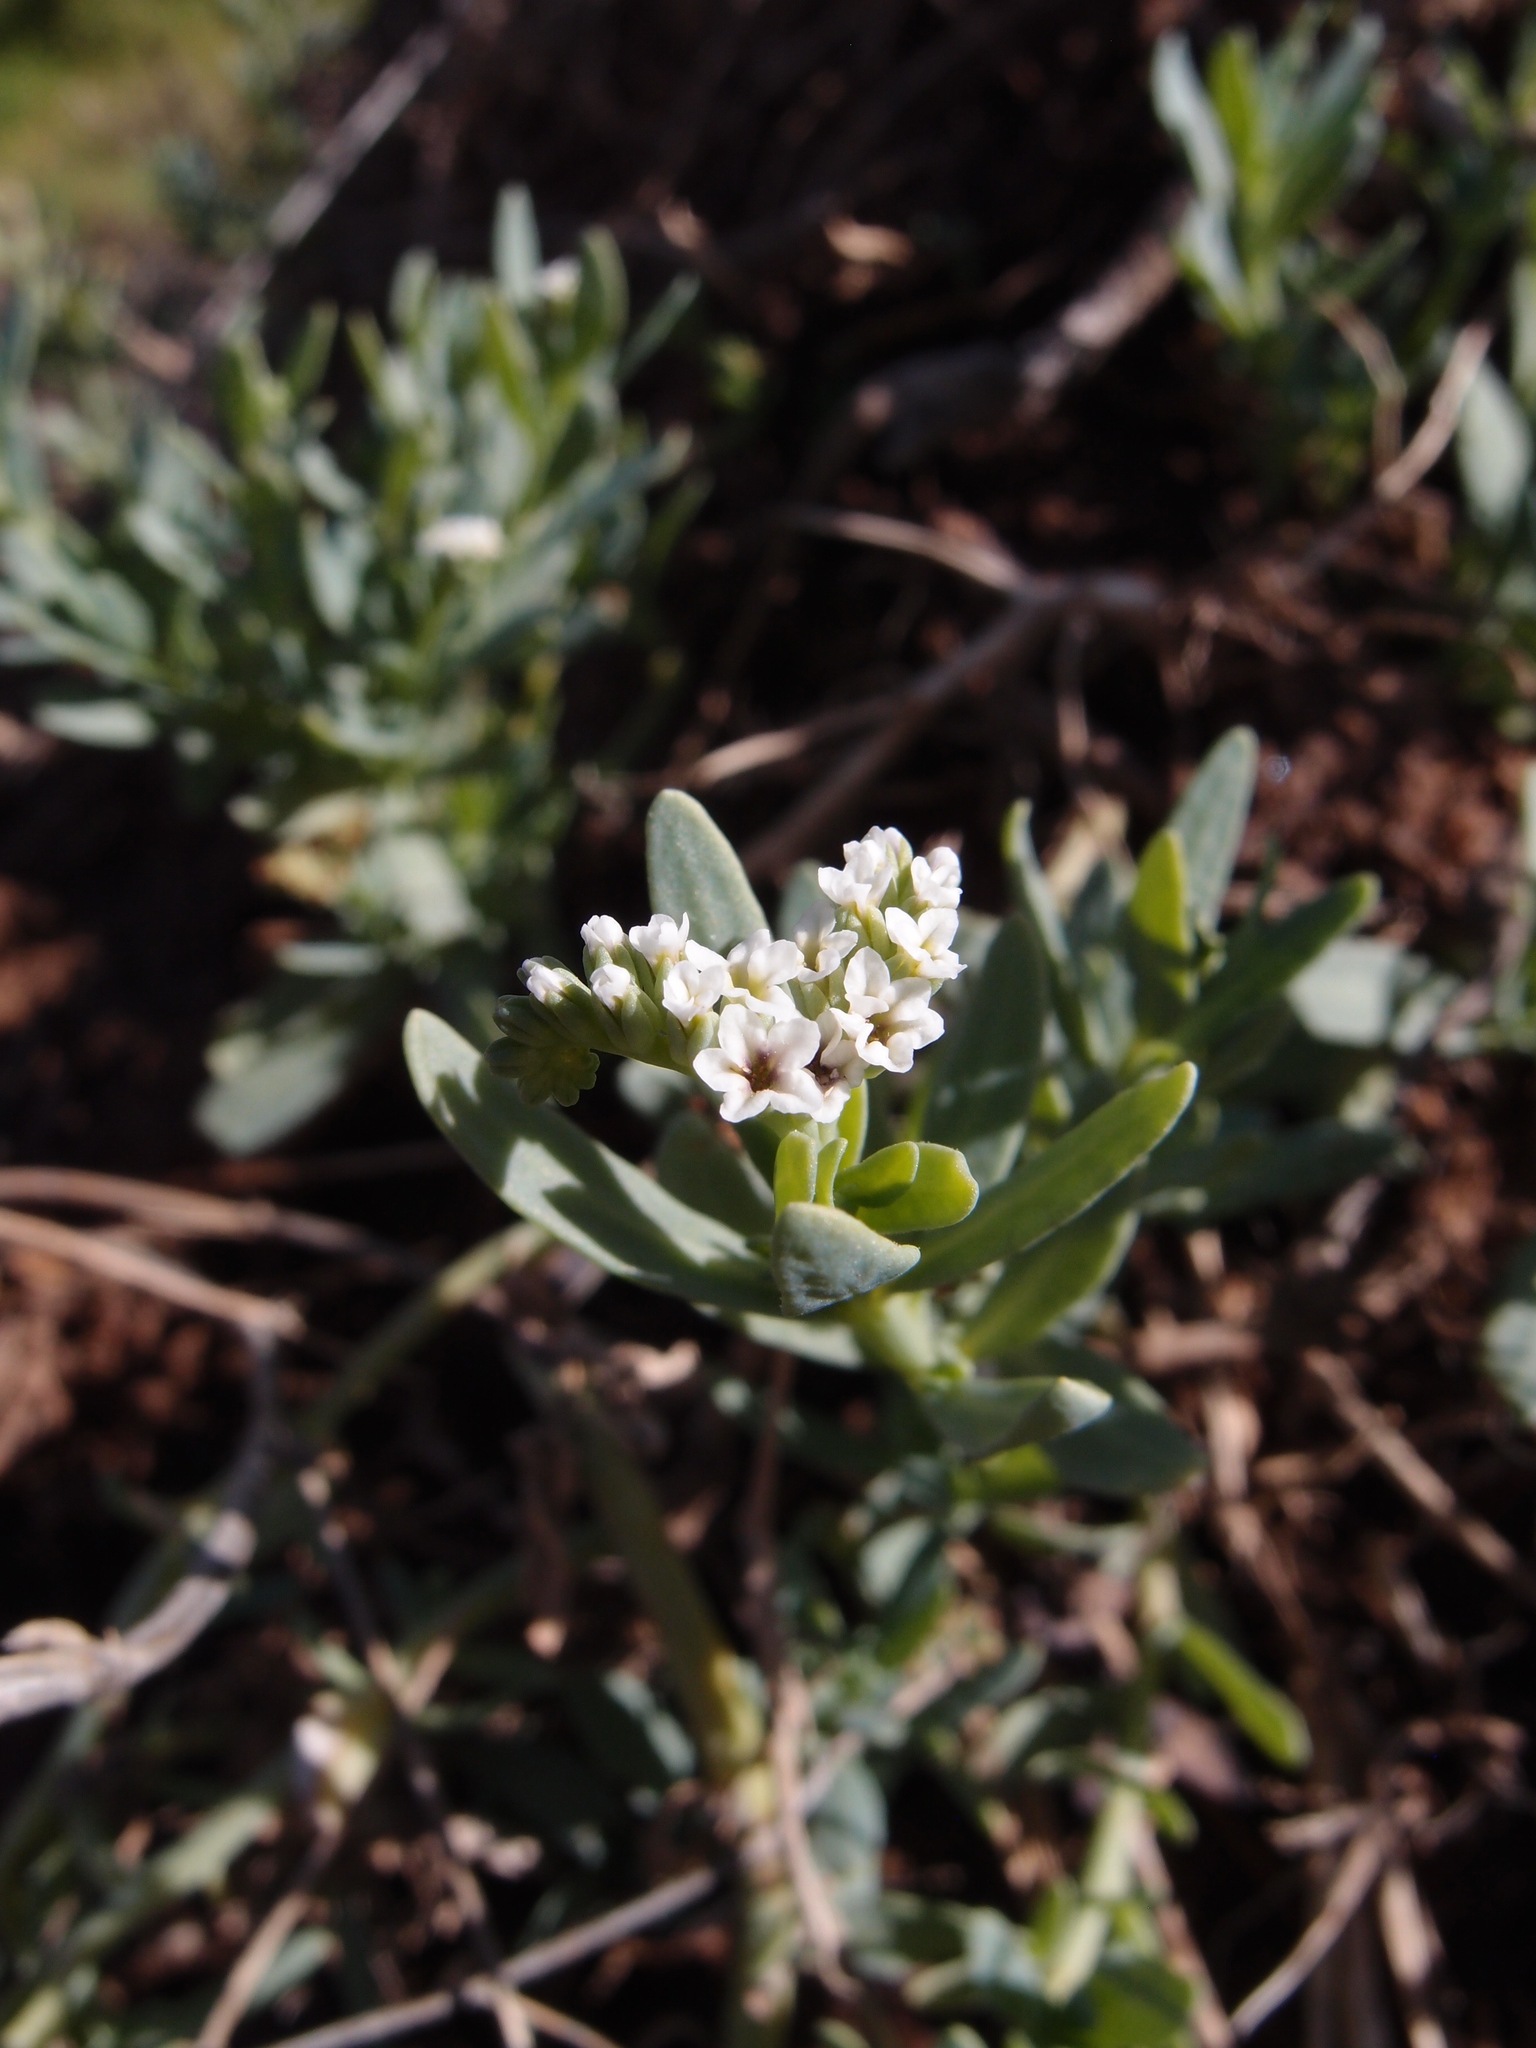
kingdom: Plantae
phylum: Tracheophyta
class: Magnoliopsida
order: Boraginales
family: Heliotropiaceae
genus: Heliotropium
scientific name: Heliotropium curassavicum
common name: Seaside heliotrope
